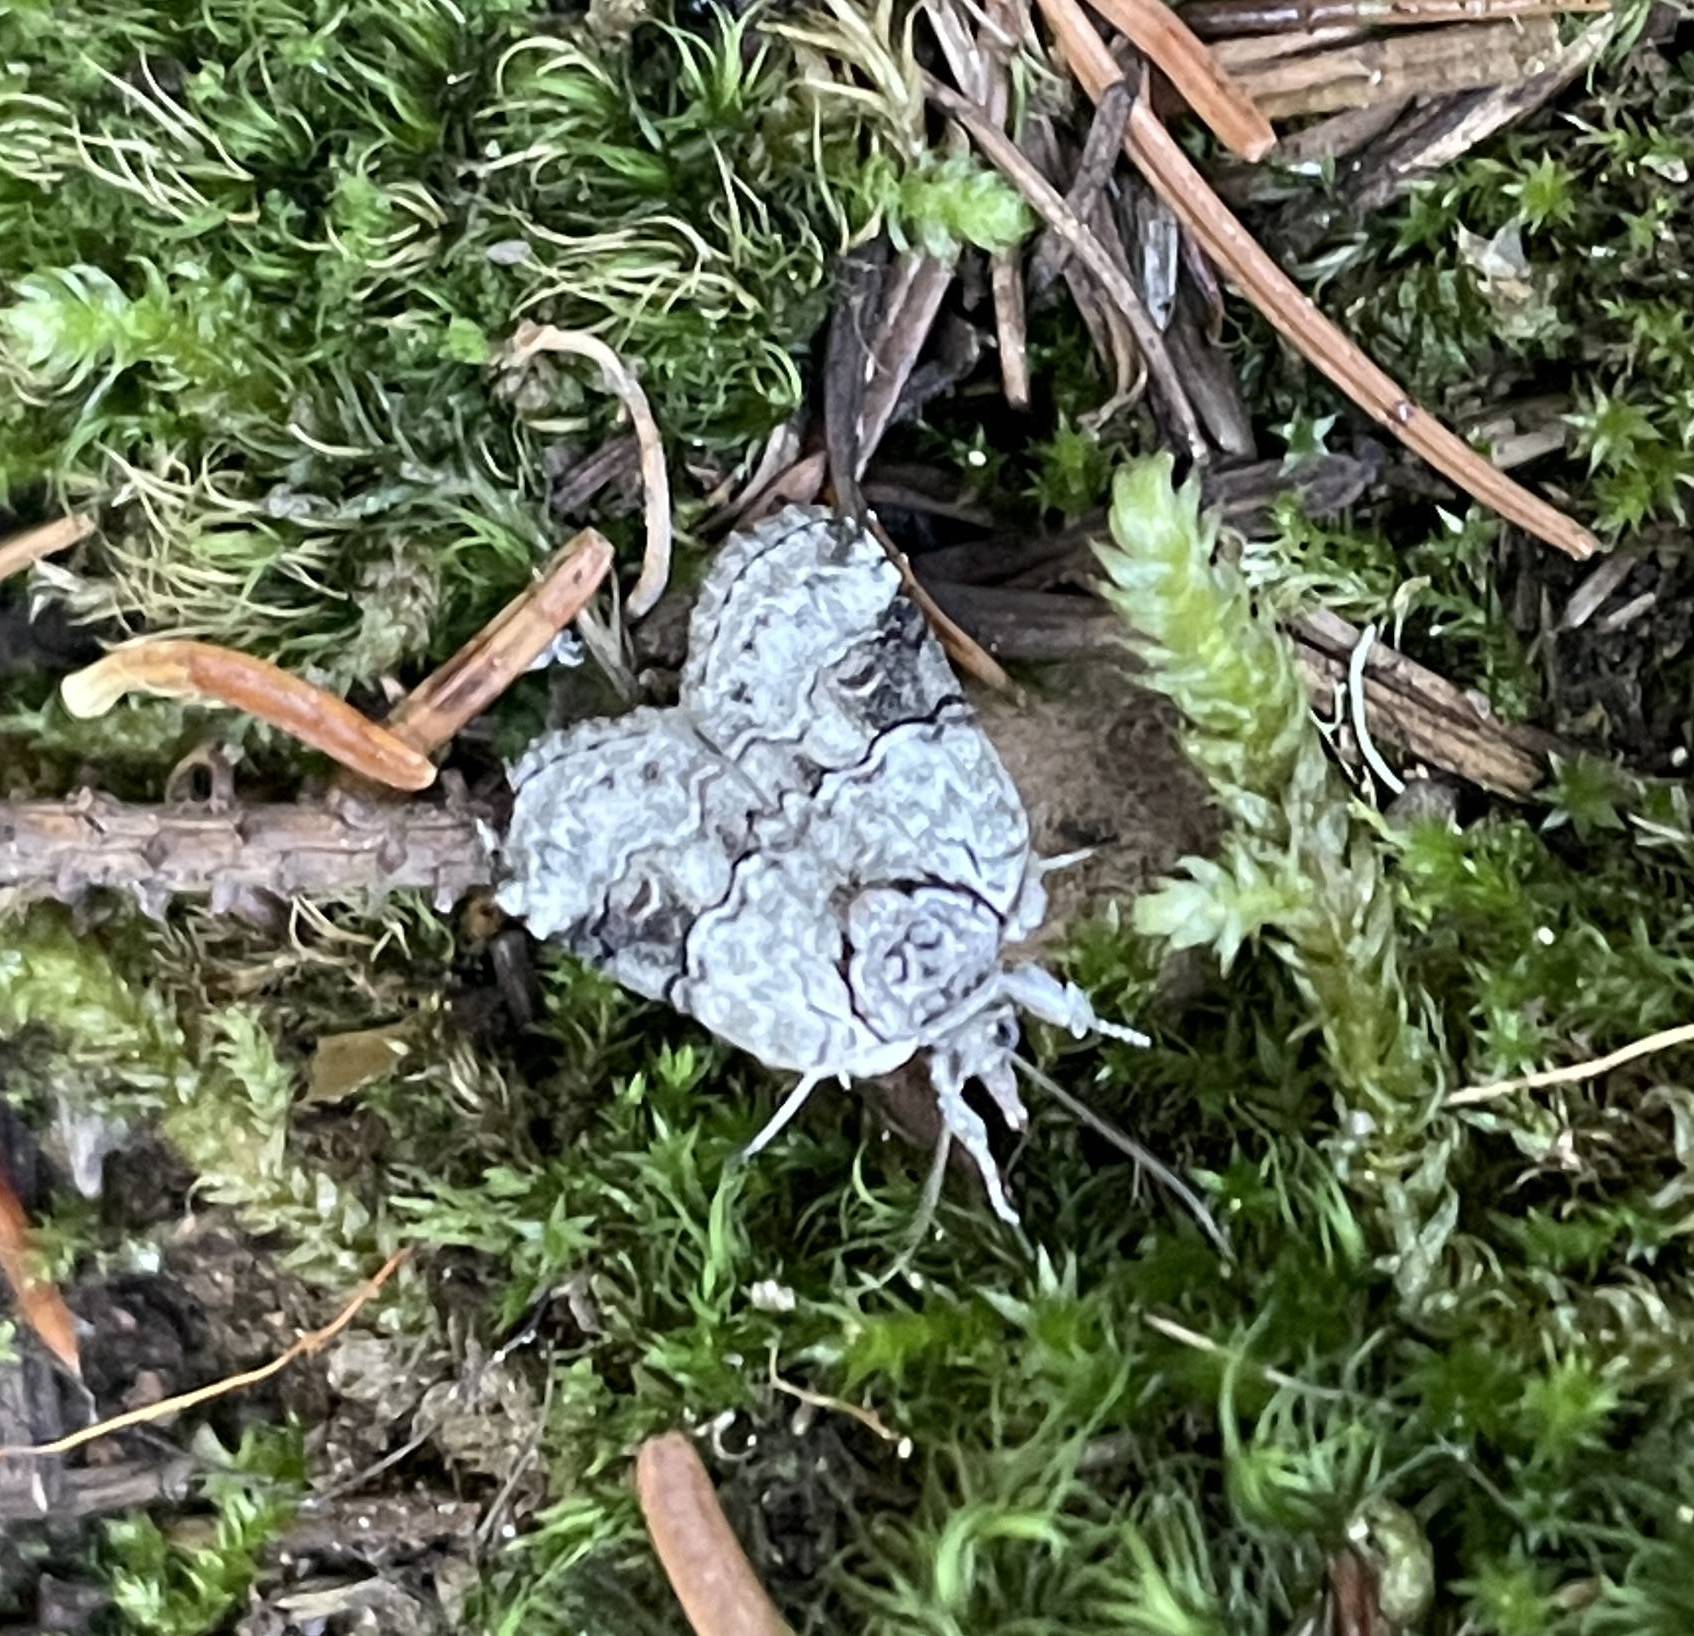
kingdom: Animalia
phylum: Arthropoda
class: Insecta
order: Lepidoptera
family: Nolidae
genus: Nycteola
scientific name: Nycteola cinereana
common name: Grey midget moth
